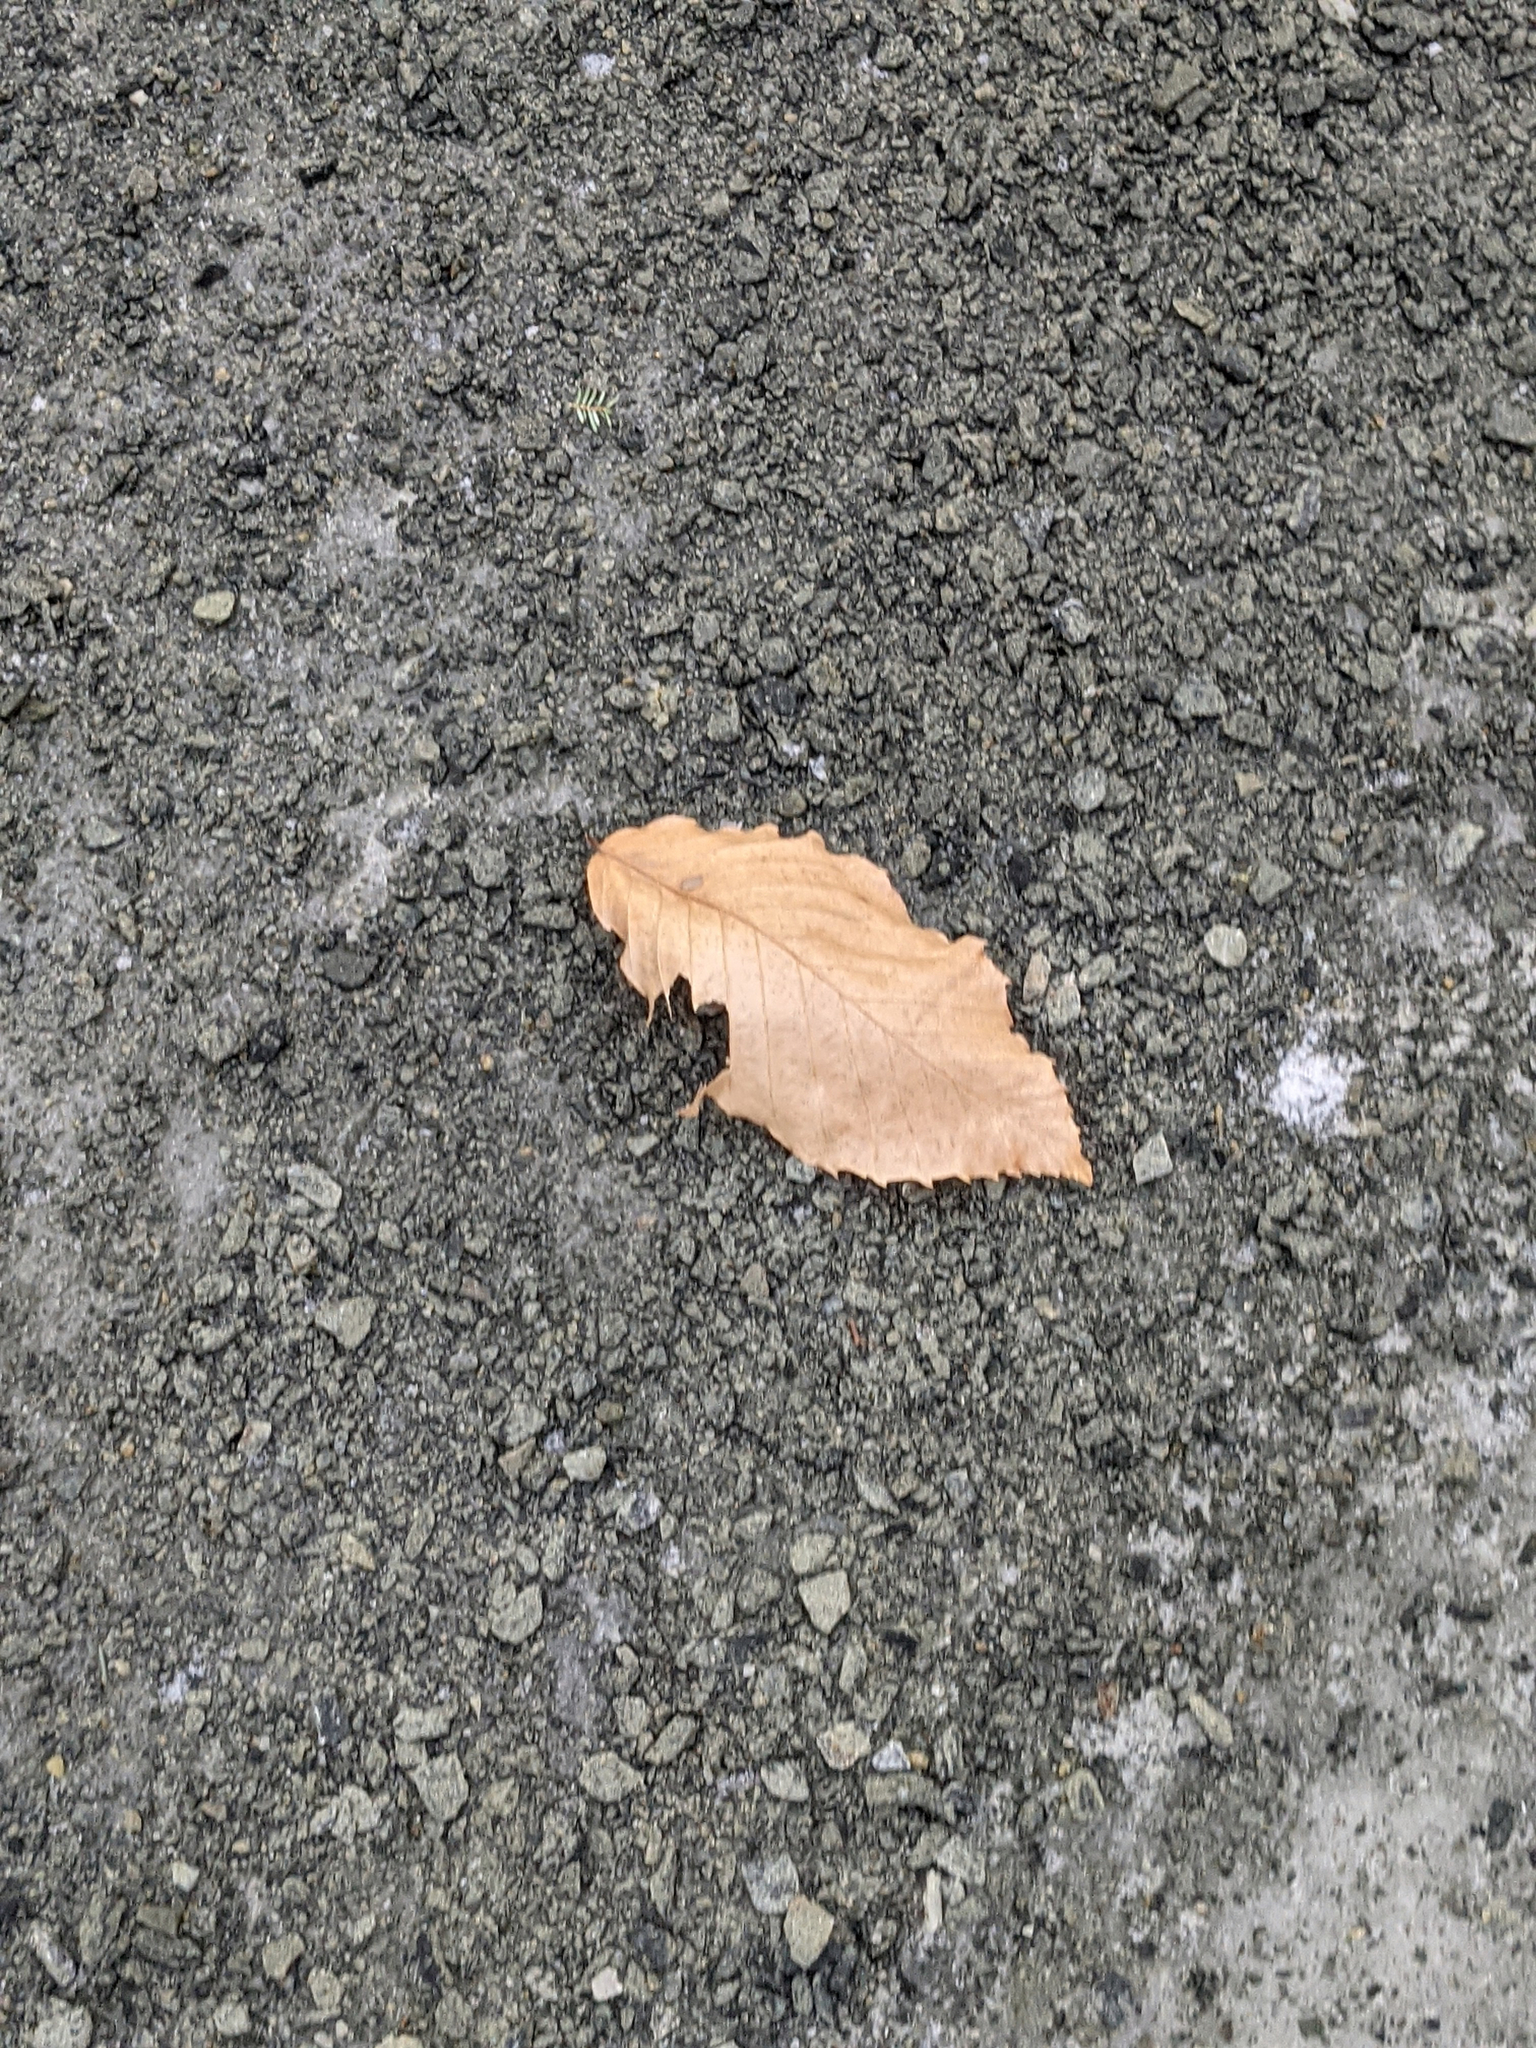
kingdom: Plantae
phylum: Tracheophyta
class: Magnoliopsida
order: Fagales
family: Fagaceae
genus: Fagus
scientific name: Fagus grandifolia
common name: American beech
